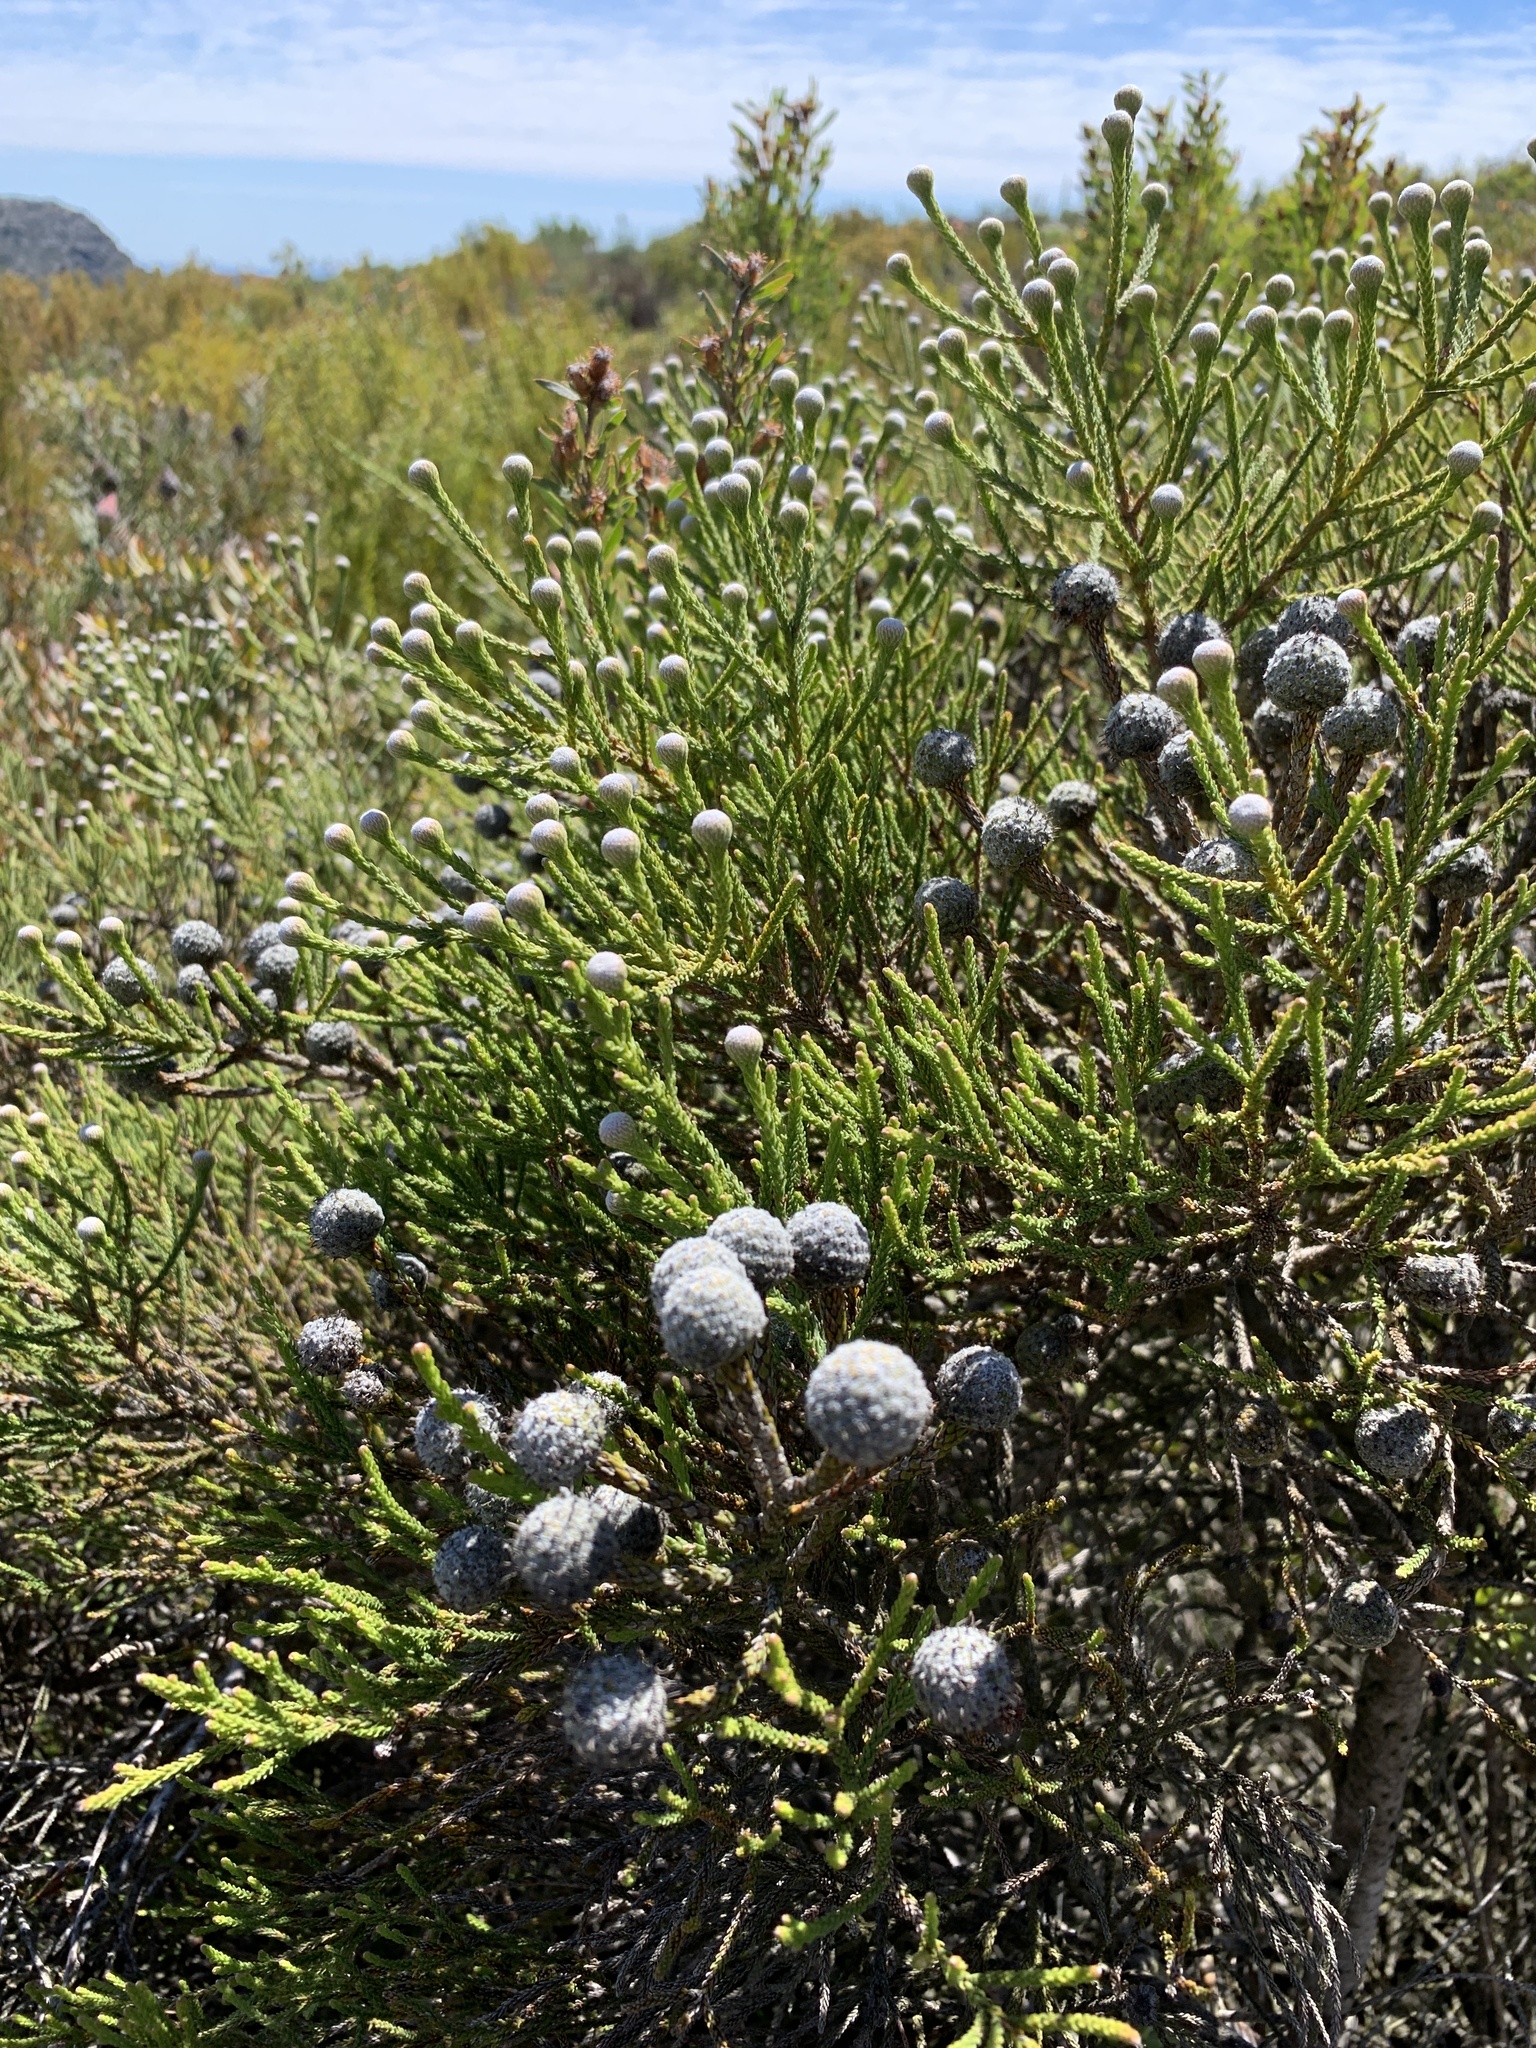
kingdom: Plantae
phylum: Tracheophyta
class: Magnoliopsida
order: Bruniales
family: Bruniaceae
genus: Brunia
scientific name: Brunia noduliflora
